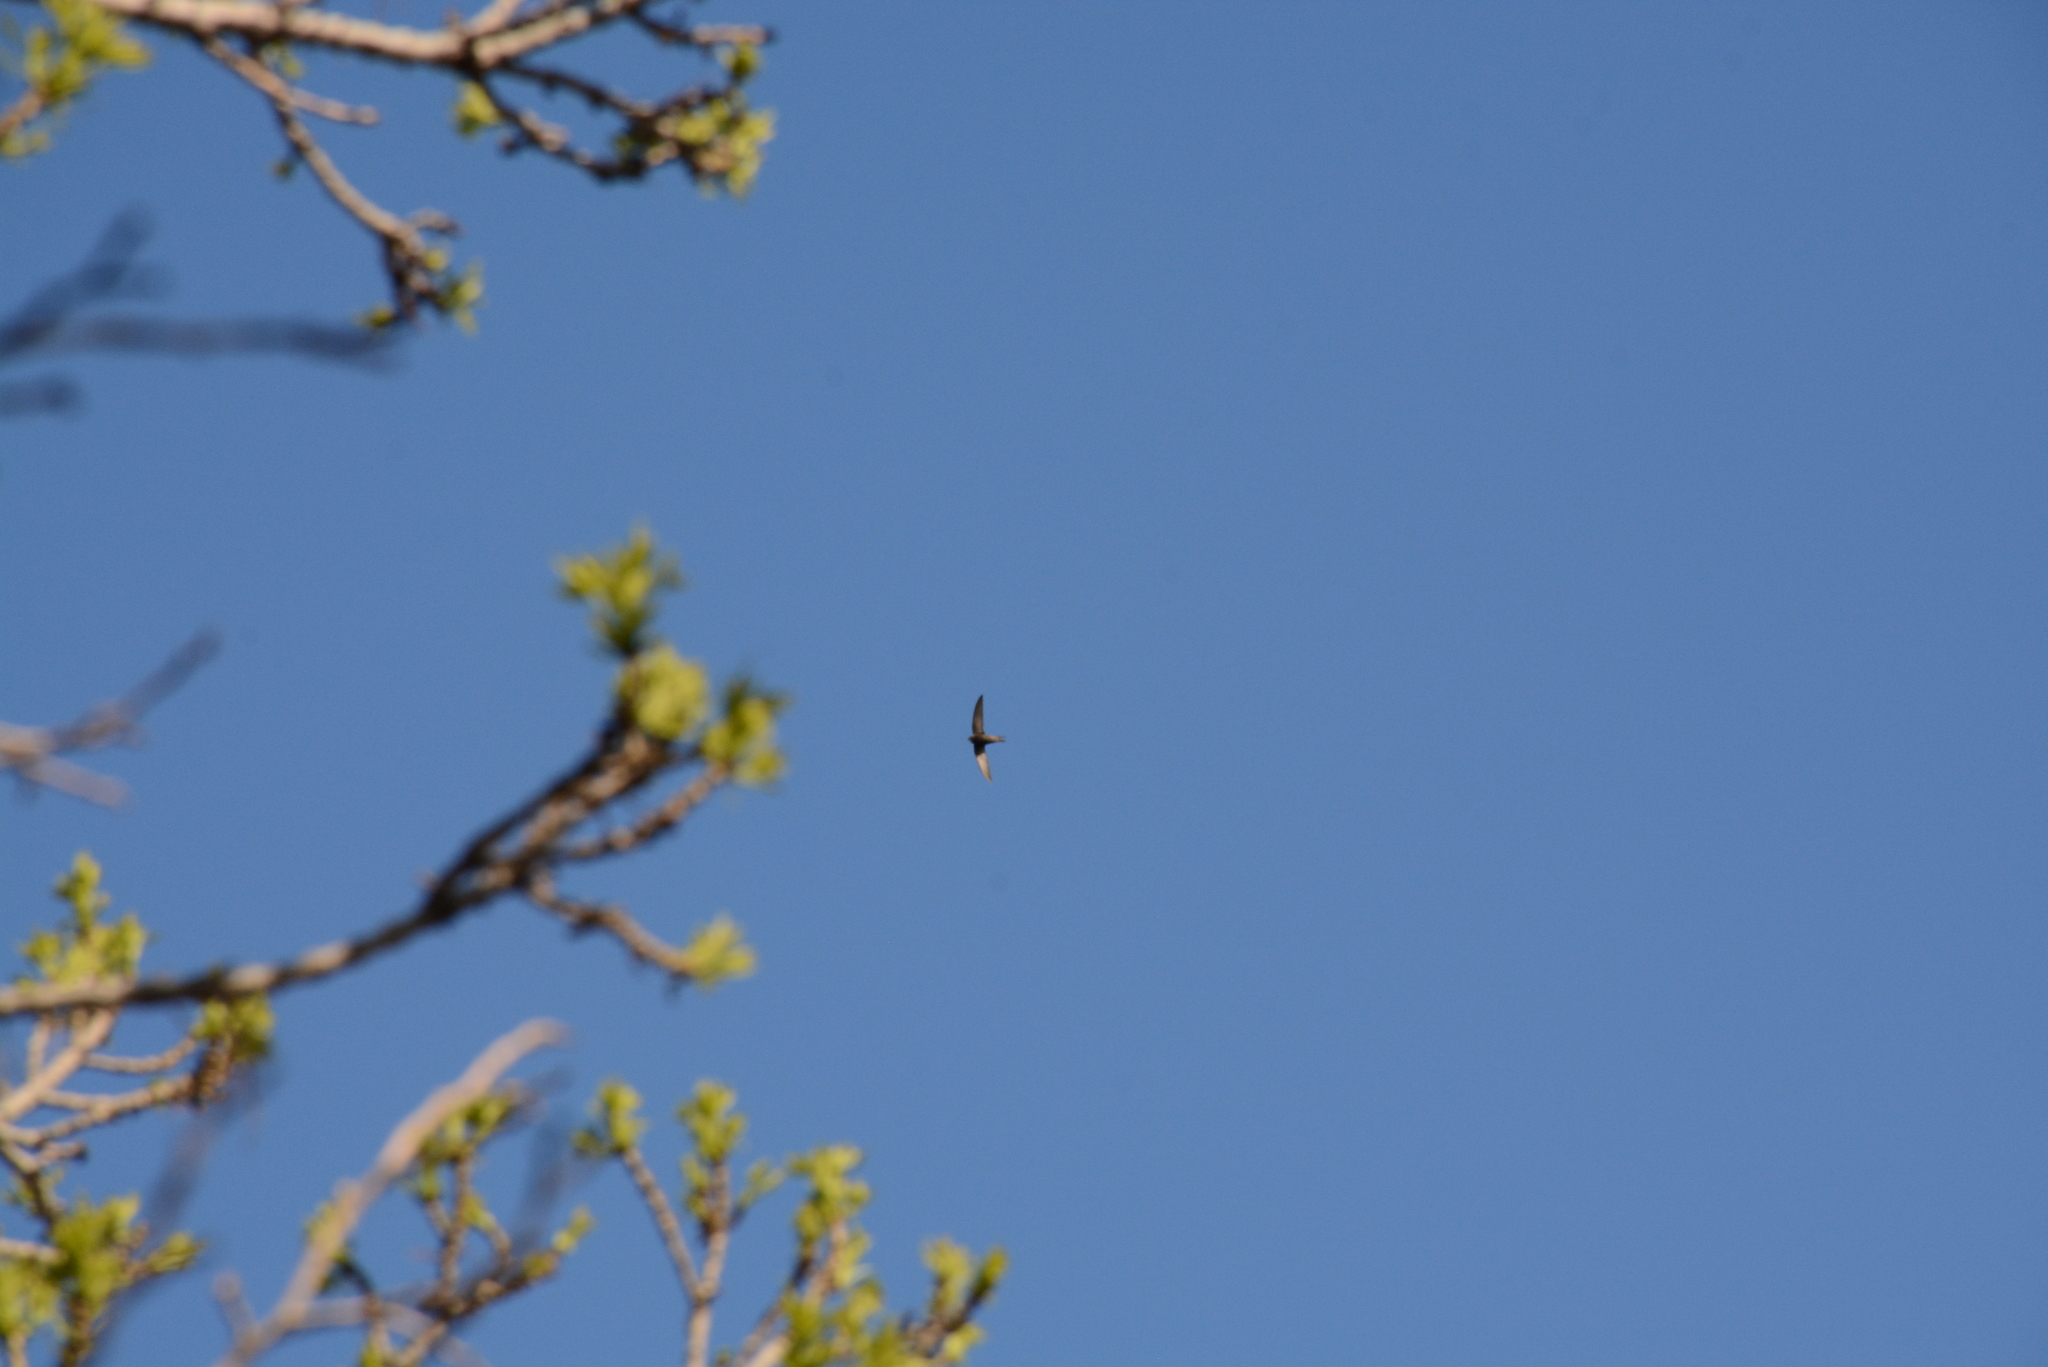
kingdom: Animalia
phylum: Chordata
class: Aves
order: Apodiformes
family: Apodidae
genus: Apus
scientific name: Apus apus
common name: Common swift
